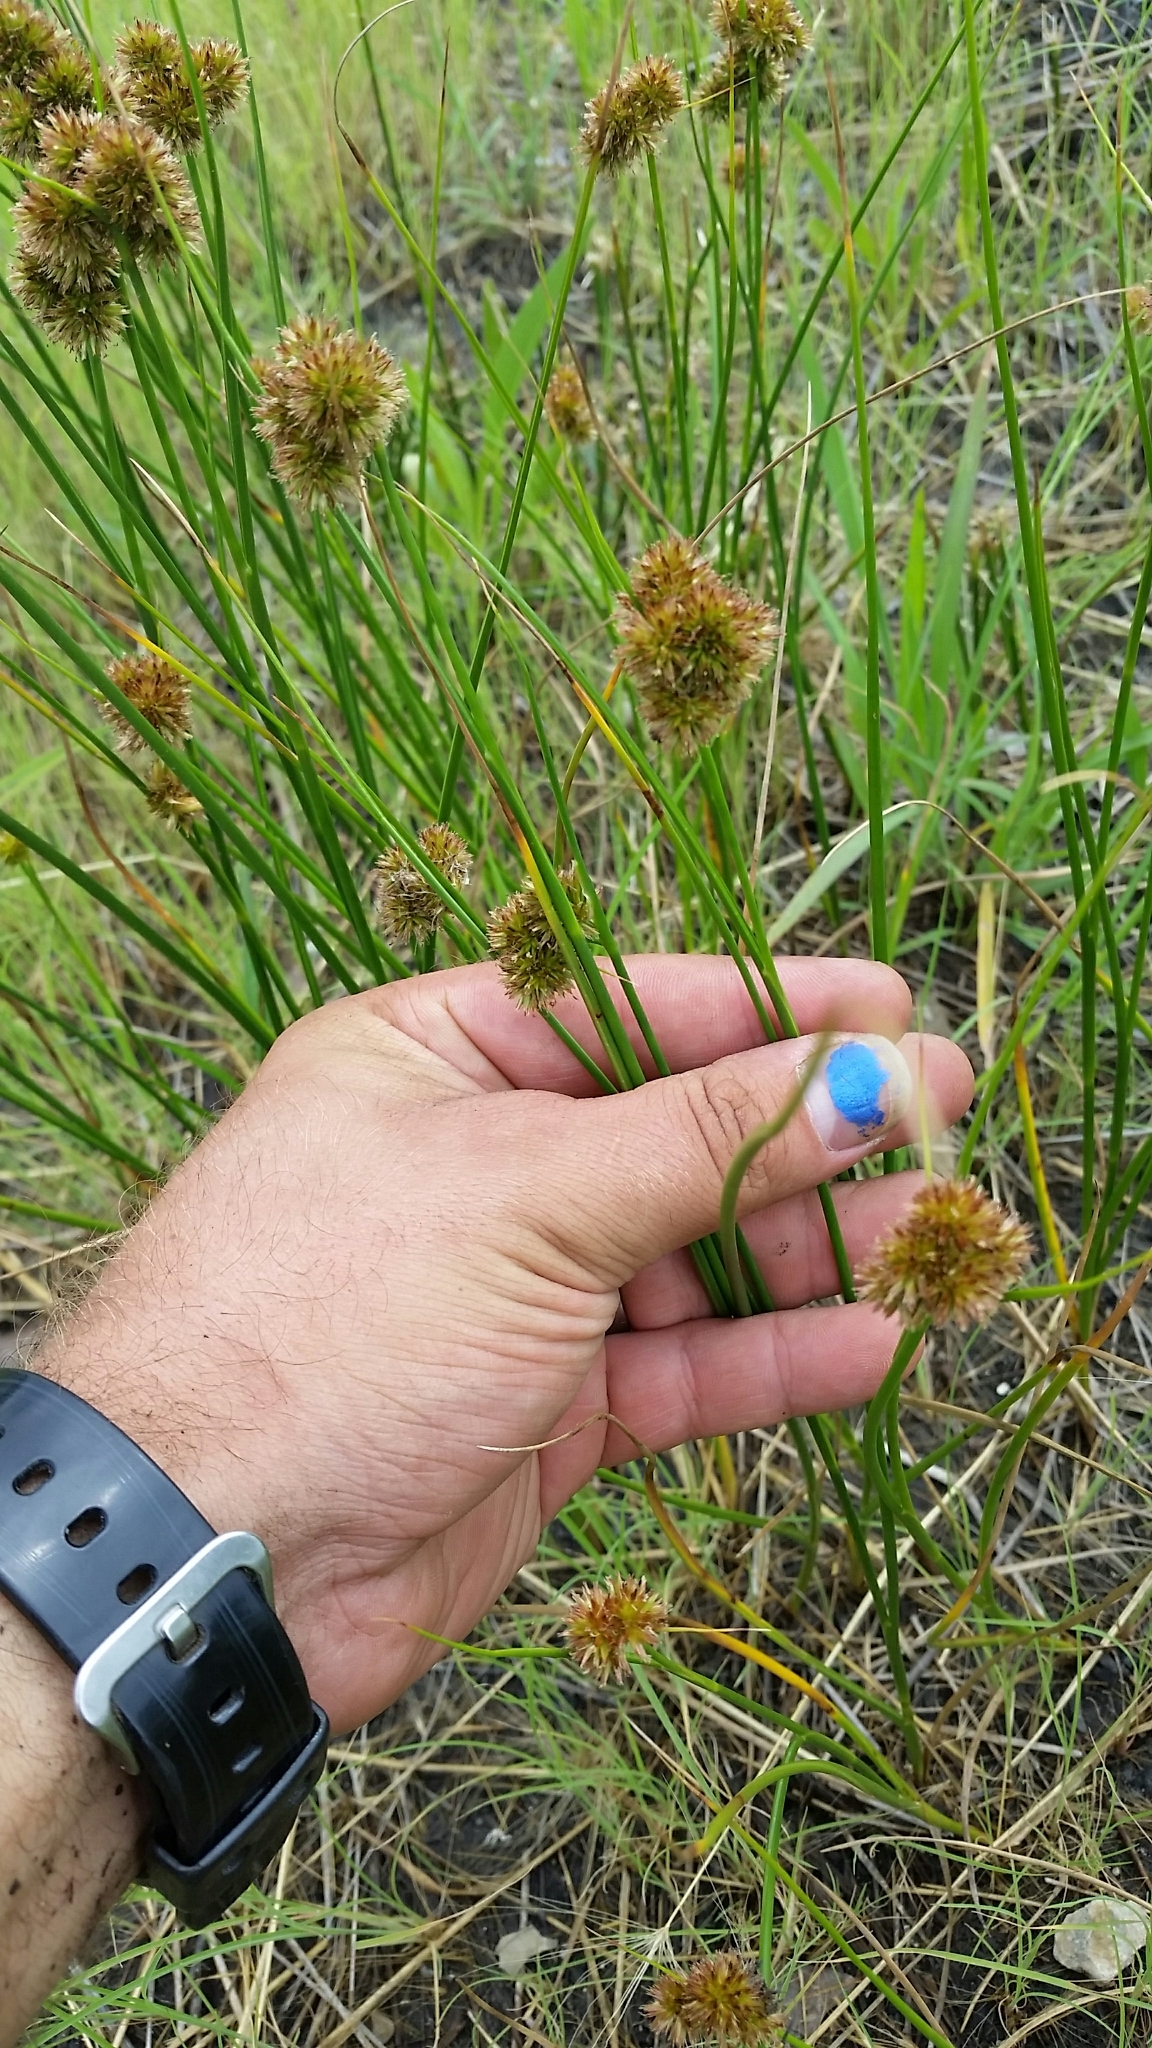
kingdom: Plantae
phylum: Tracheophyta
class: Liliopsida
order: Poales
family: Juncaceae
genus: Juncus
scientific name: Juncus torreyi
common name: Torrey's rush
